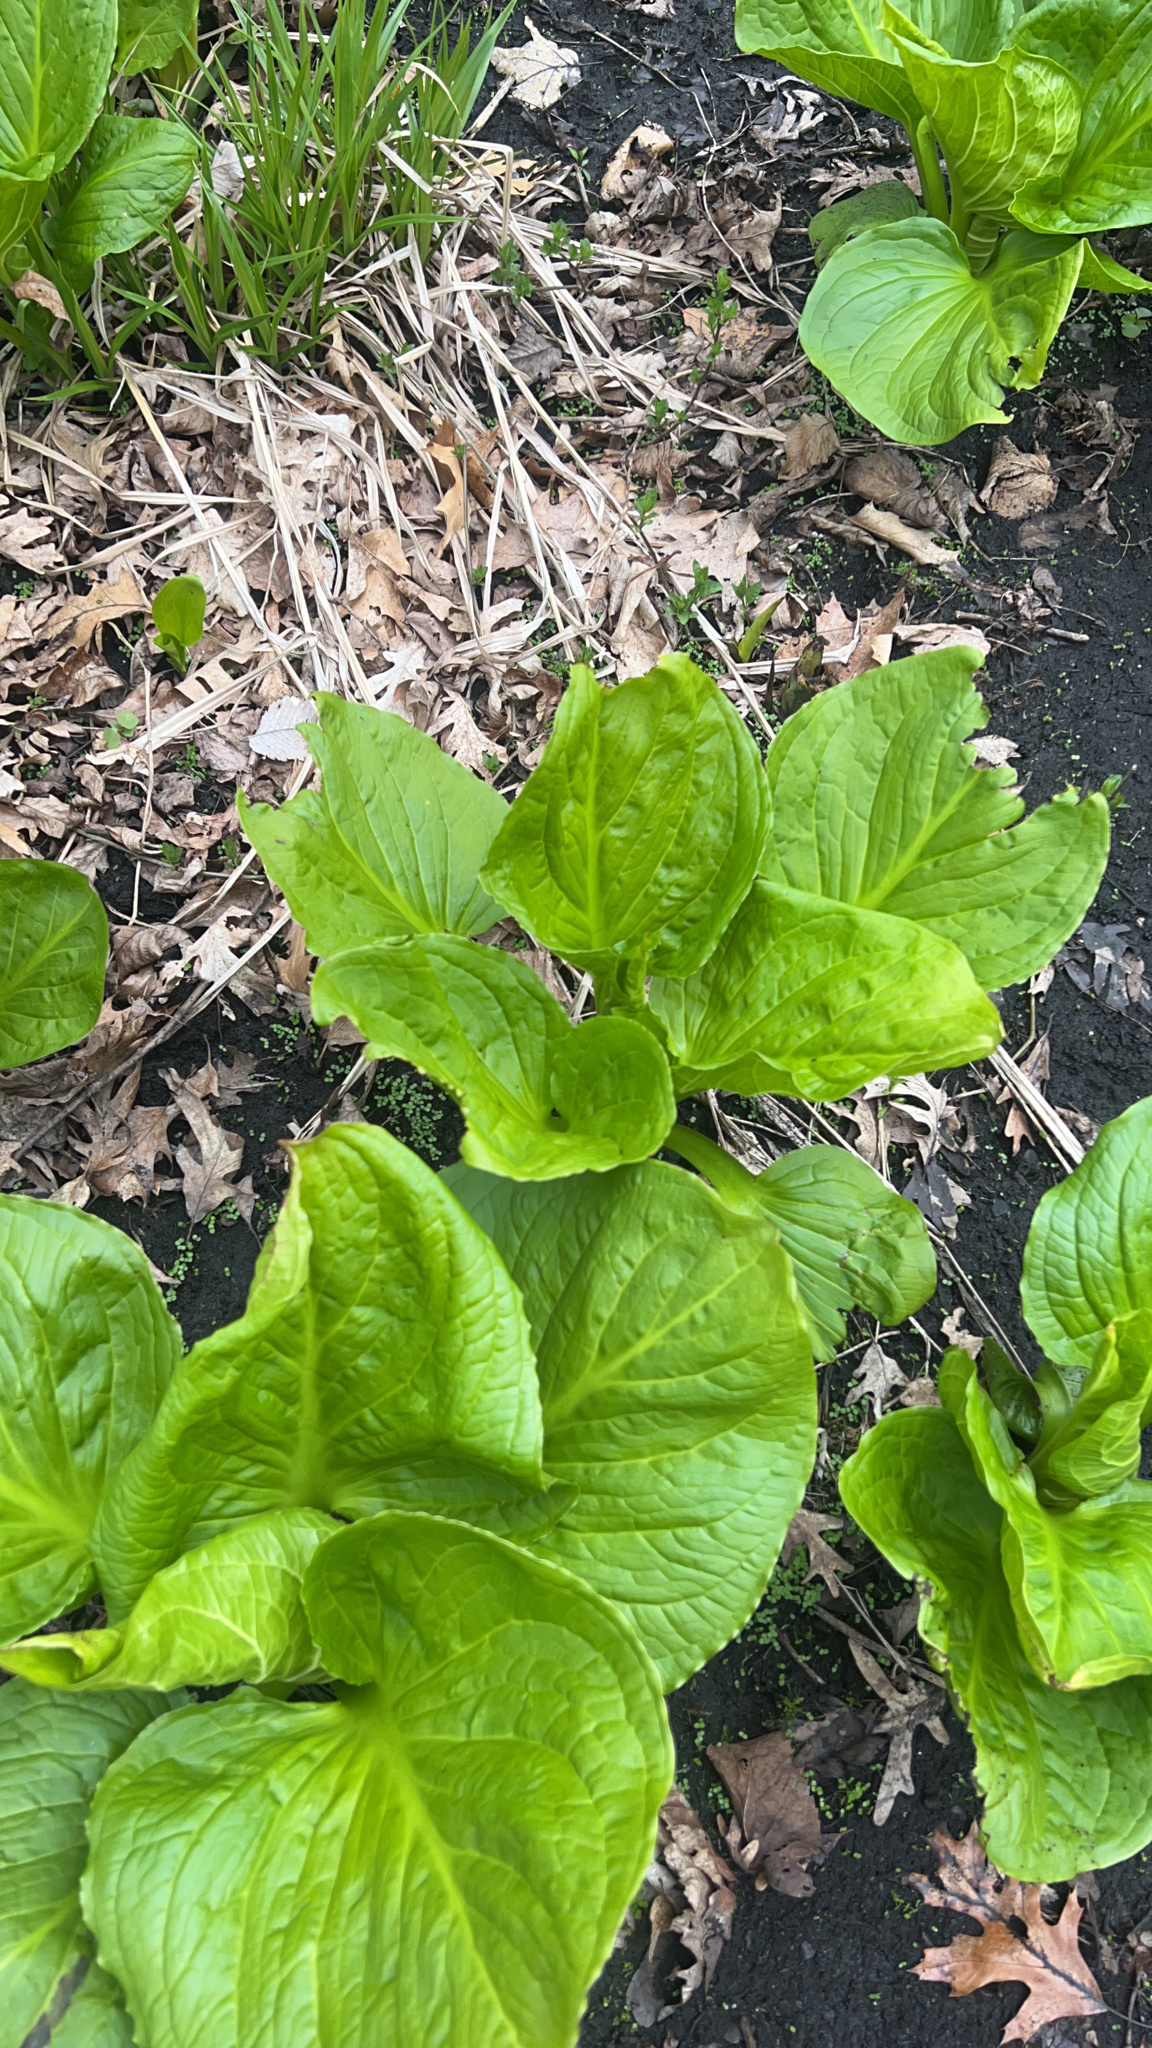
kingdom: Plantae
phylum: Tracheophyta
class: Liliopsida
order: Alismatales
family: Araceae
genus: Symplocarpus
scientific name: Symplocarpus foetidus
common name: Eastern skunk cabbage
